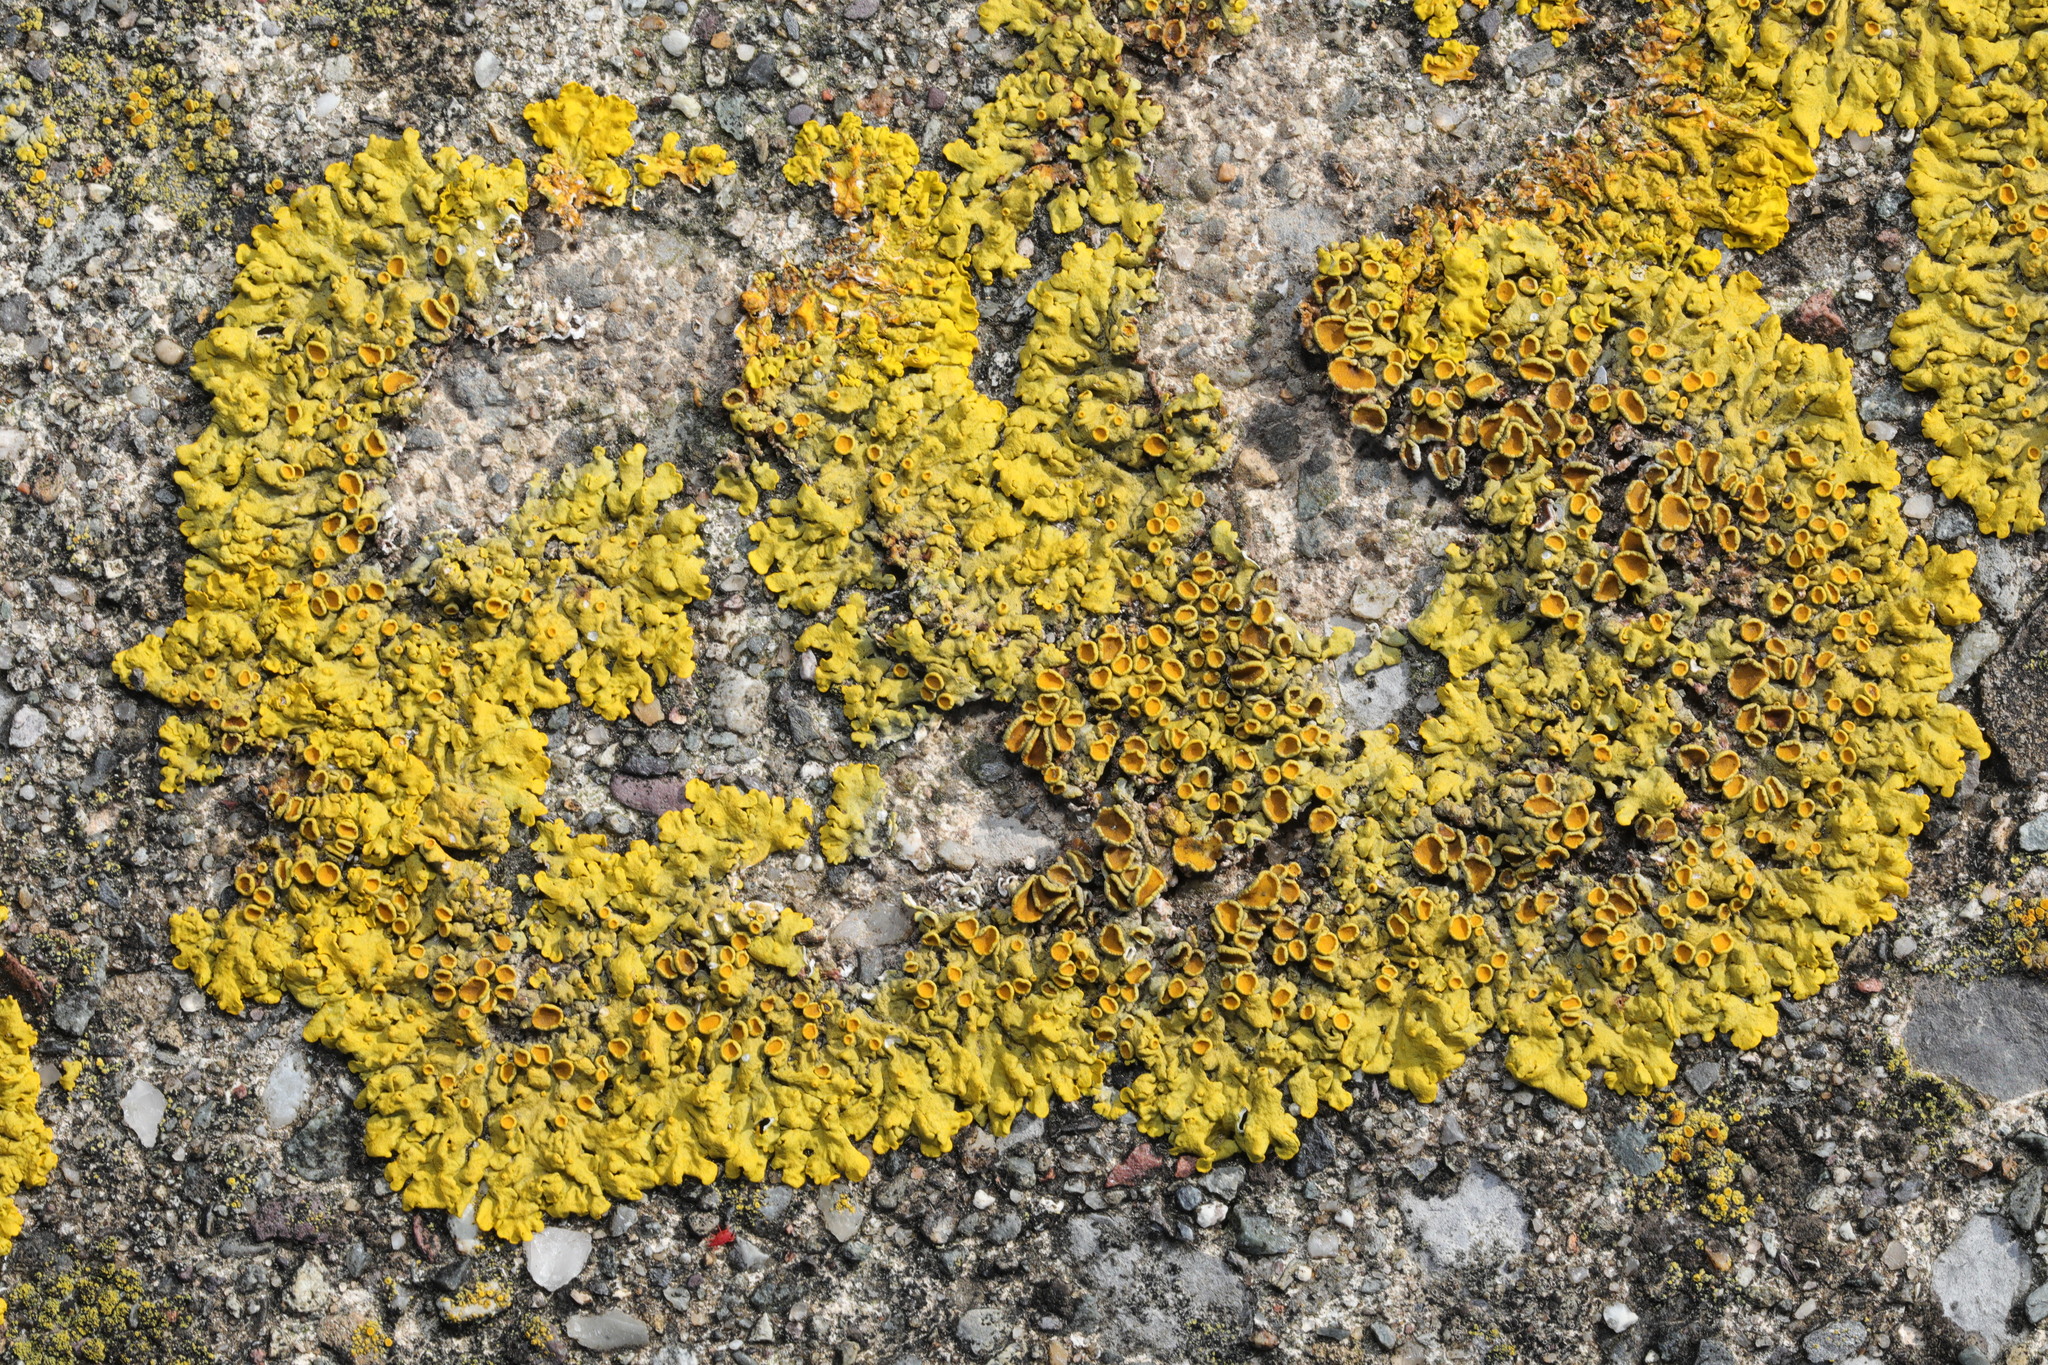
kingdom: Fungi
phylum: Ascomycota
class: Lecanoromycetes
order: Teloschistales
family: Teloschistaceae
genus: Xanthoria
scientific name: Xanthoria parietina
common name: Common orange lichen
